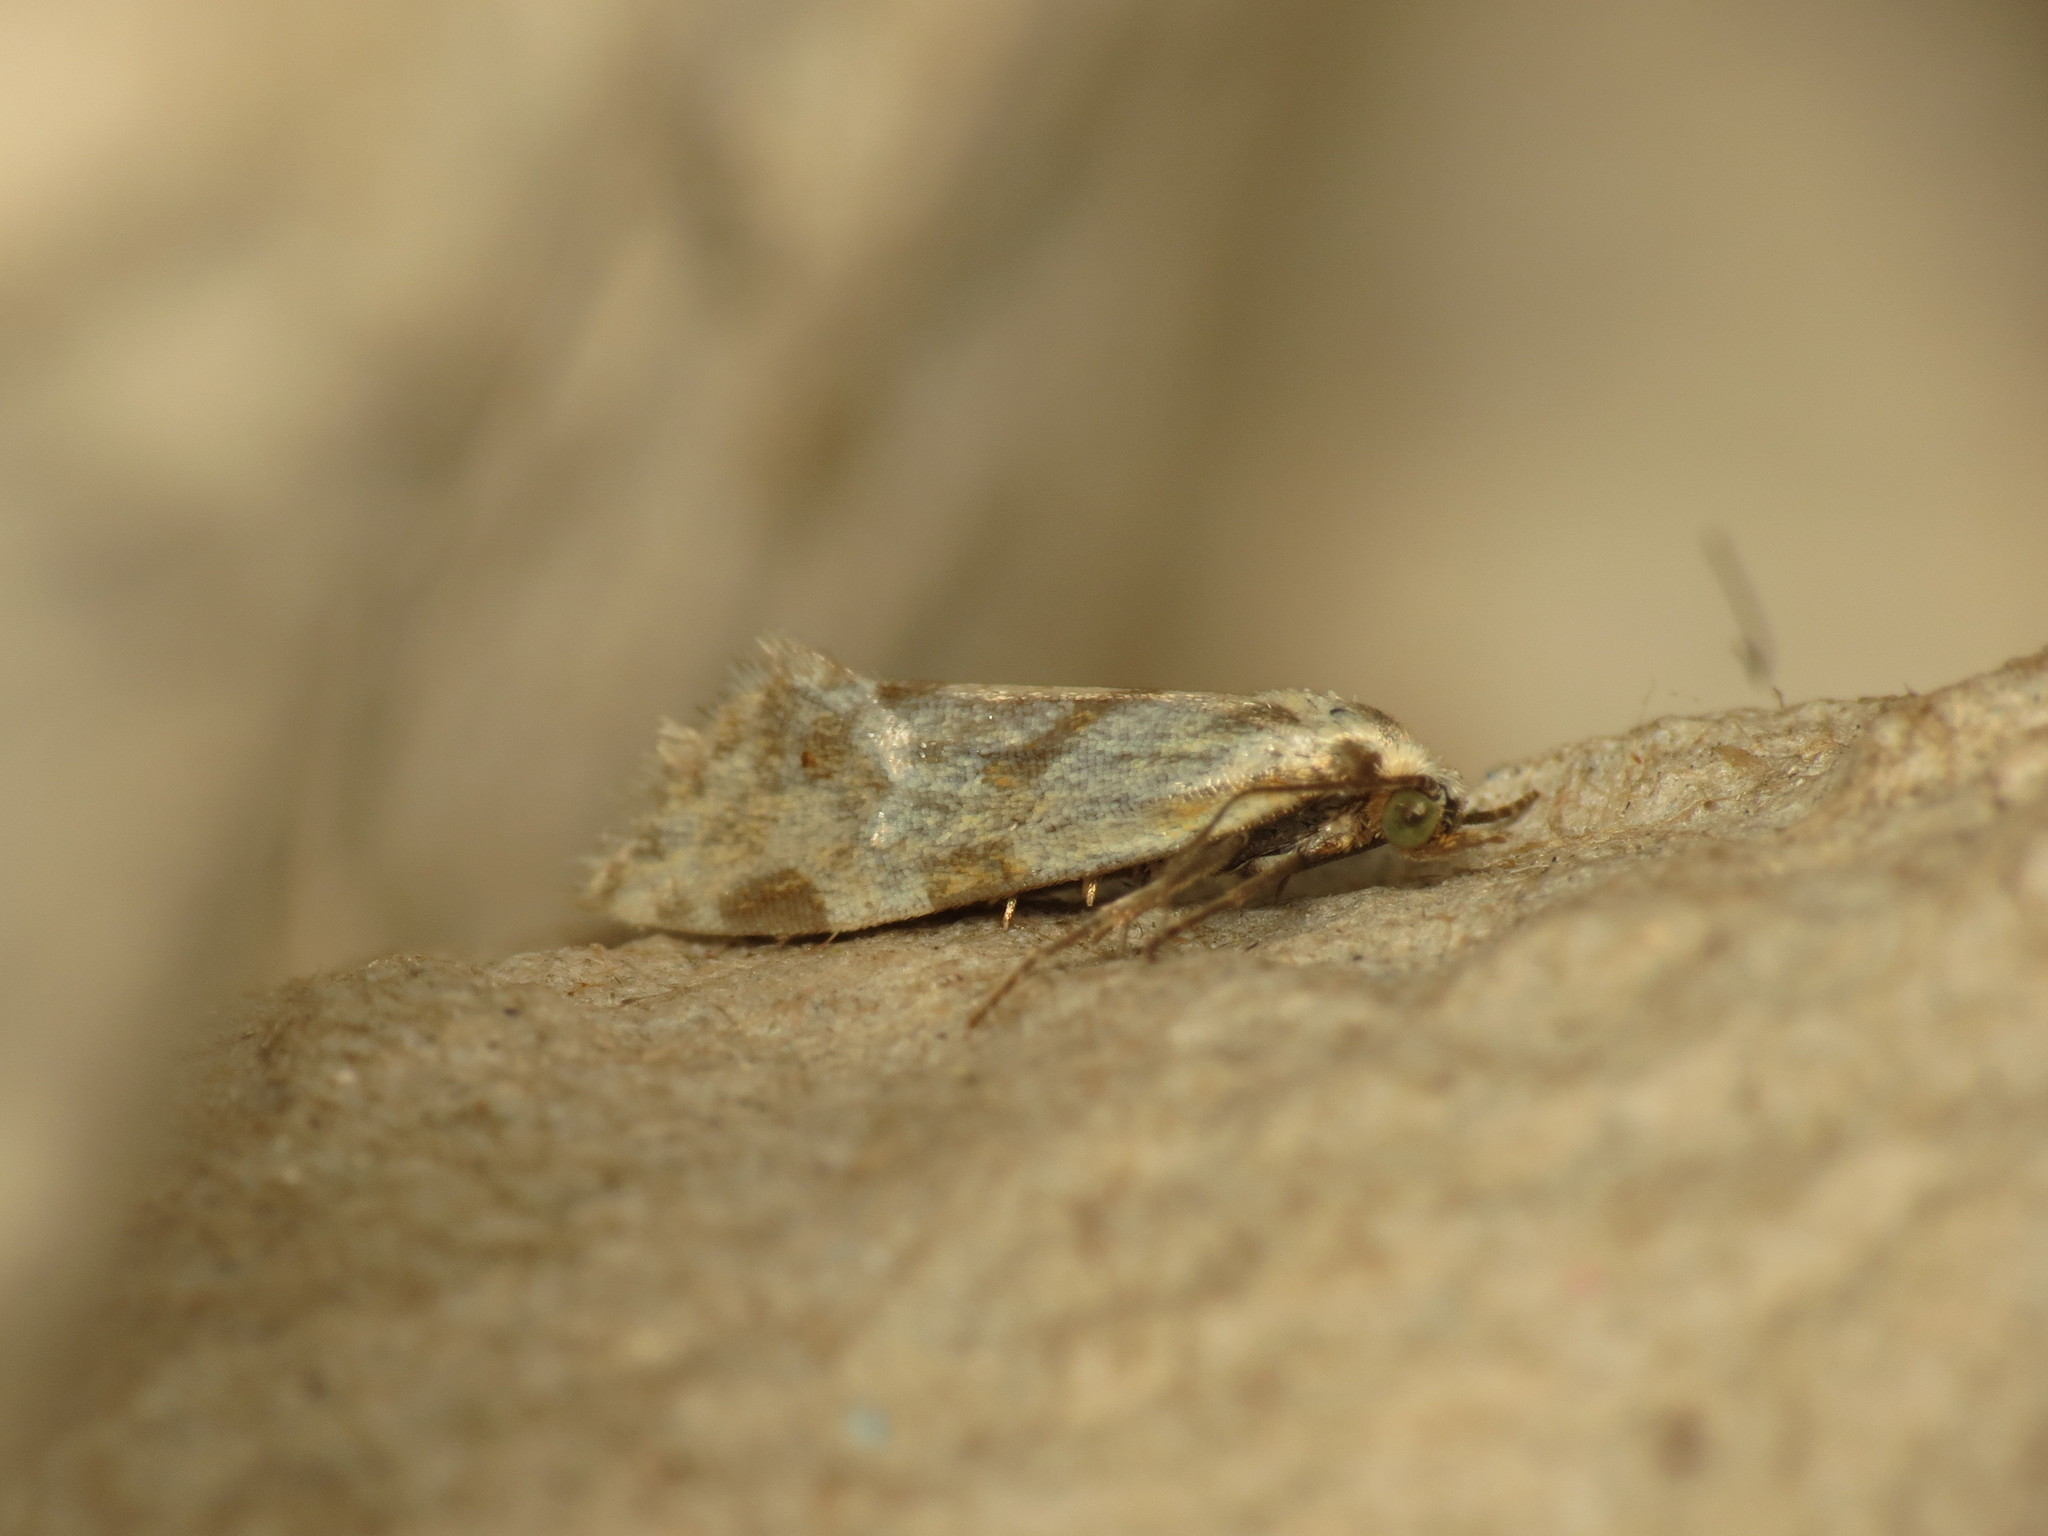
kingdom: Animalia
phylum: Arthropoda
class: Insecta
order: Lepidoptera
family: Tortricidae
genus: Aethes
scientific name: Aethes smeathmanniana
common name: Yarrow conch
